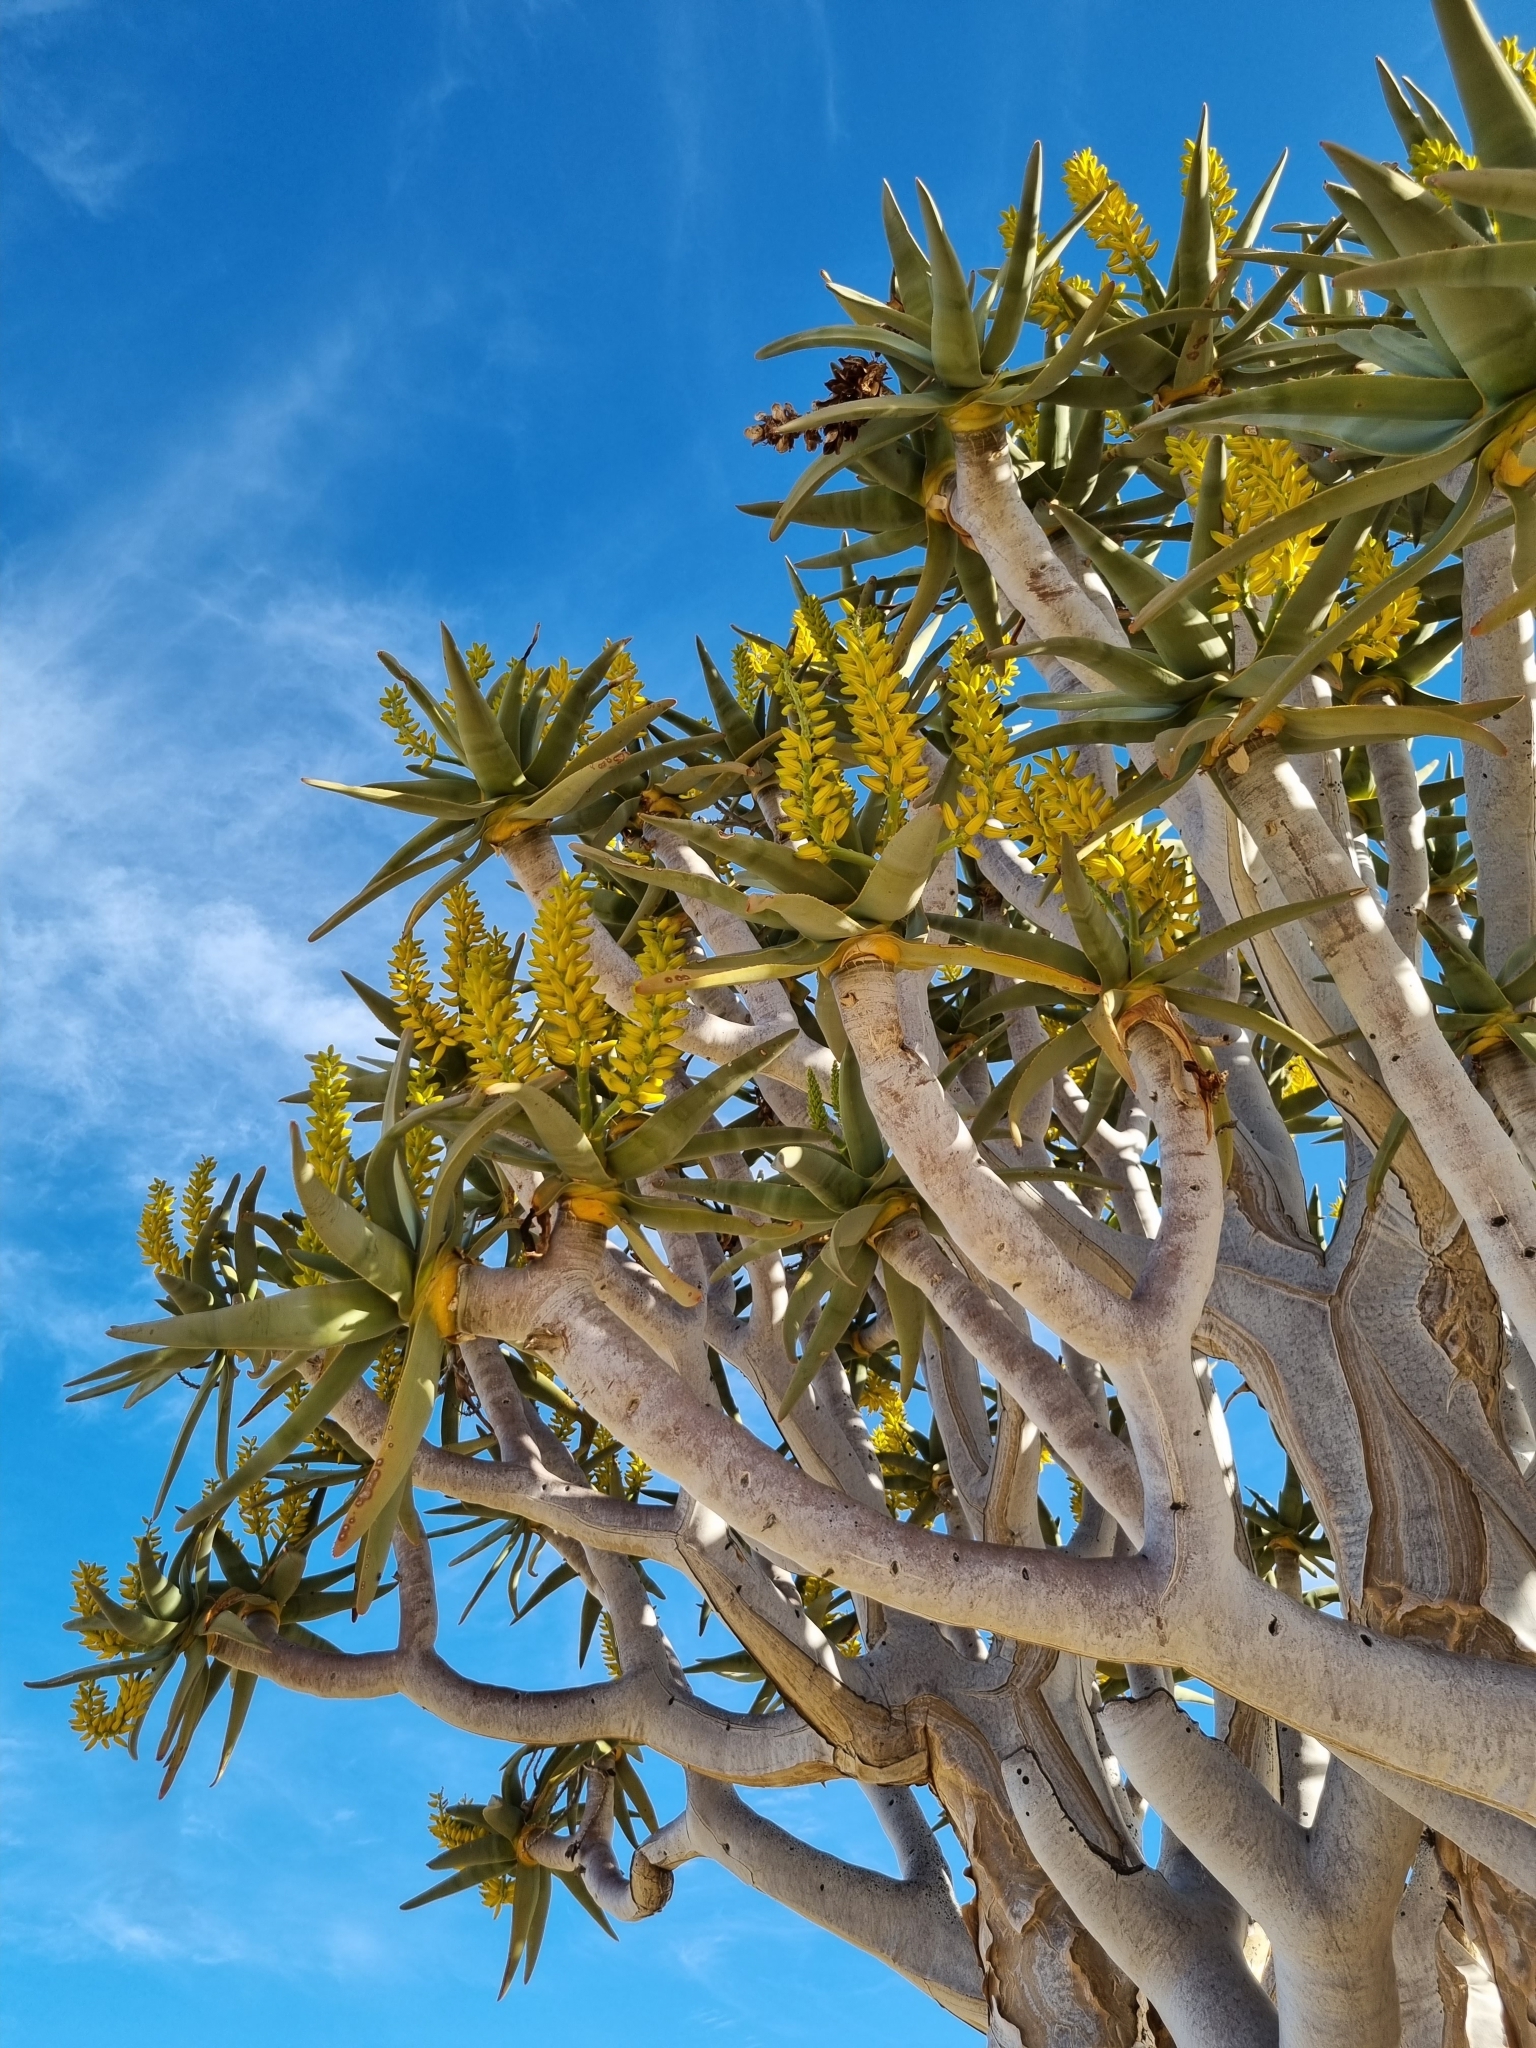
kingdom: Plantae
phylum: Tracheophyta
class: Liliopsida
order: Asparagales
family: Asphodelaceae
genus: Aloidendron
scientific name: Aloidendron dichotomum
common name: Quiver tree
